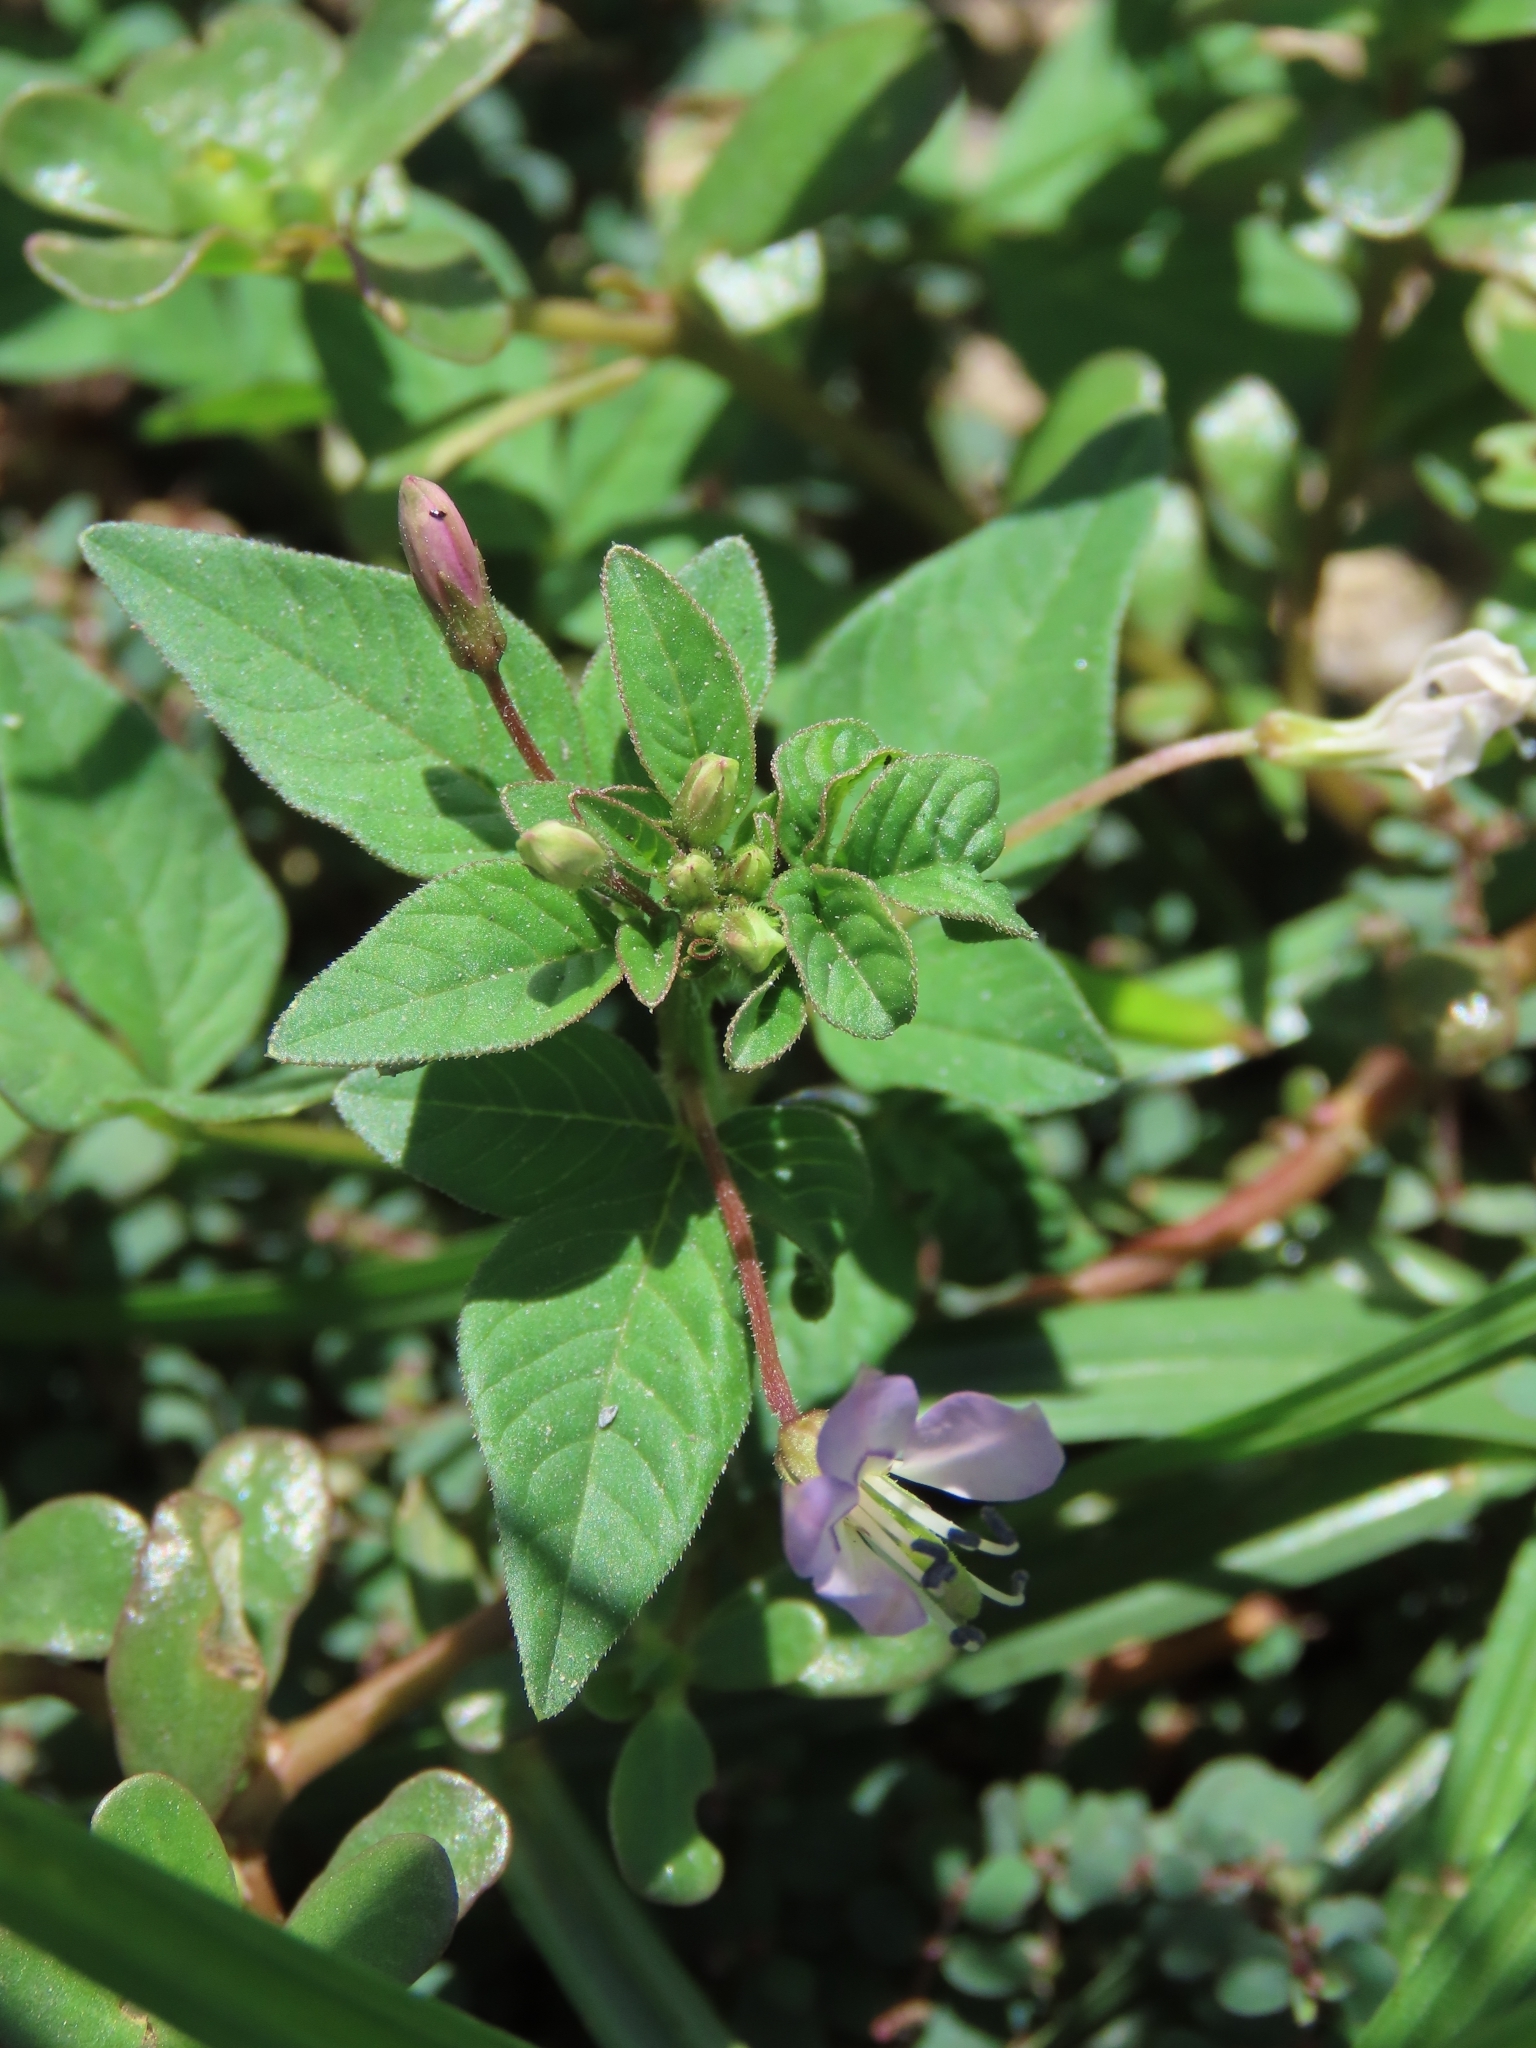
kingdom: Plantae
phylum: Tracheophyta
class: Magnoliopsida
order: Brassicales
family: Cleomaceae
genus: Sieruela
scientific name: Sieruela rutidosperma
